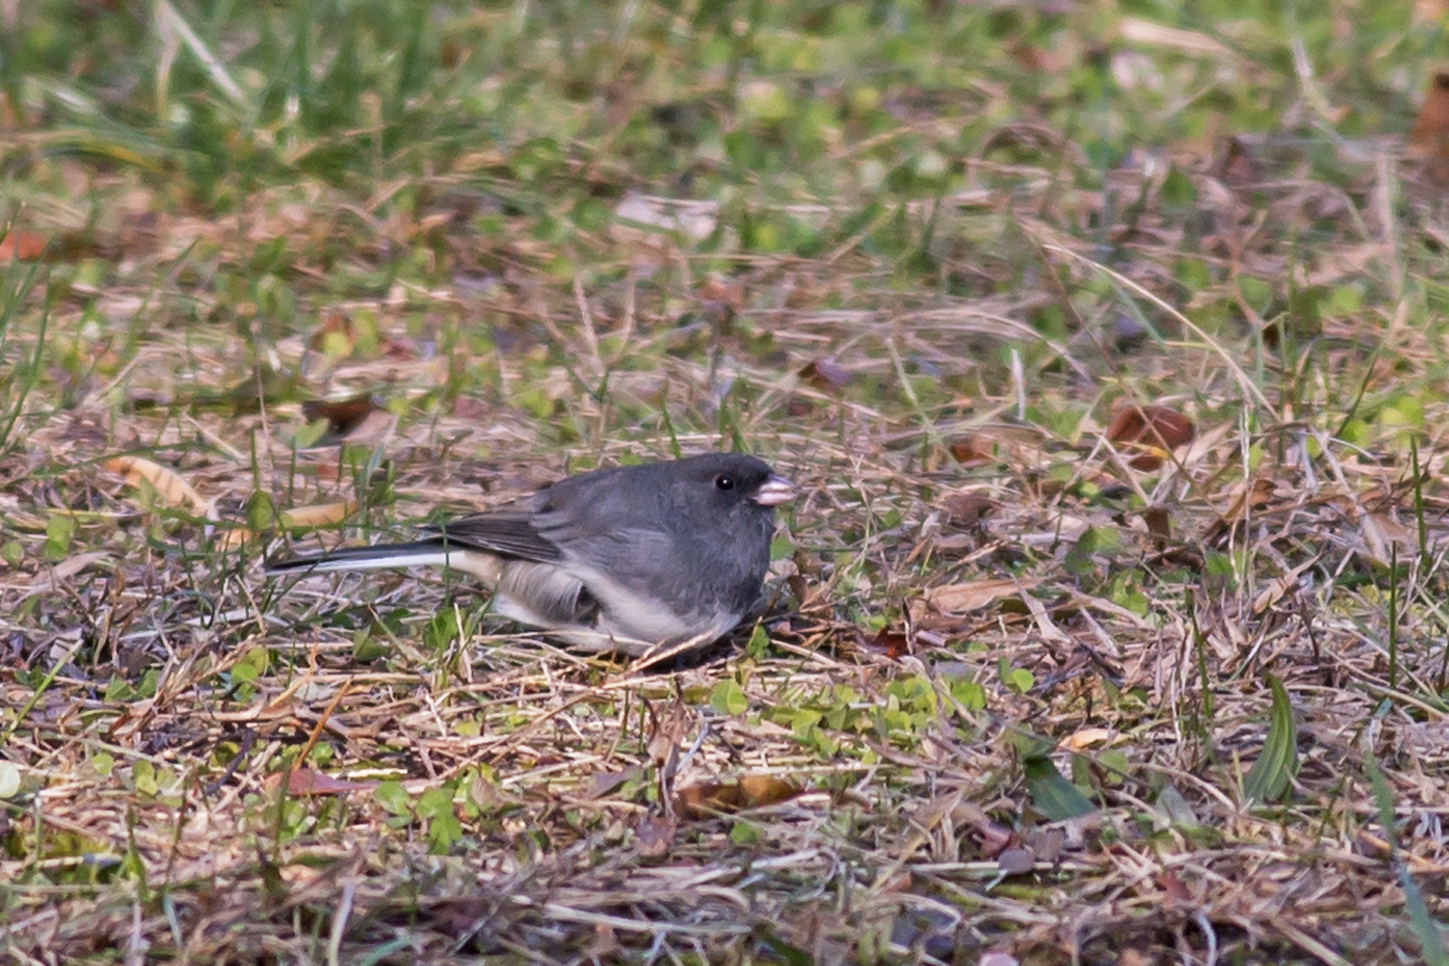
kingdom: Animalia
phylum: Chordata
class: Aves
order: Passeriformes
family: Passerellidae
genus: Junco
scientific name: Junco hyemalis
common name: Dark-eyed junco
